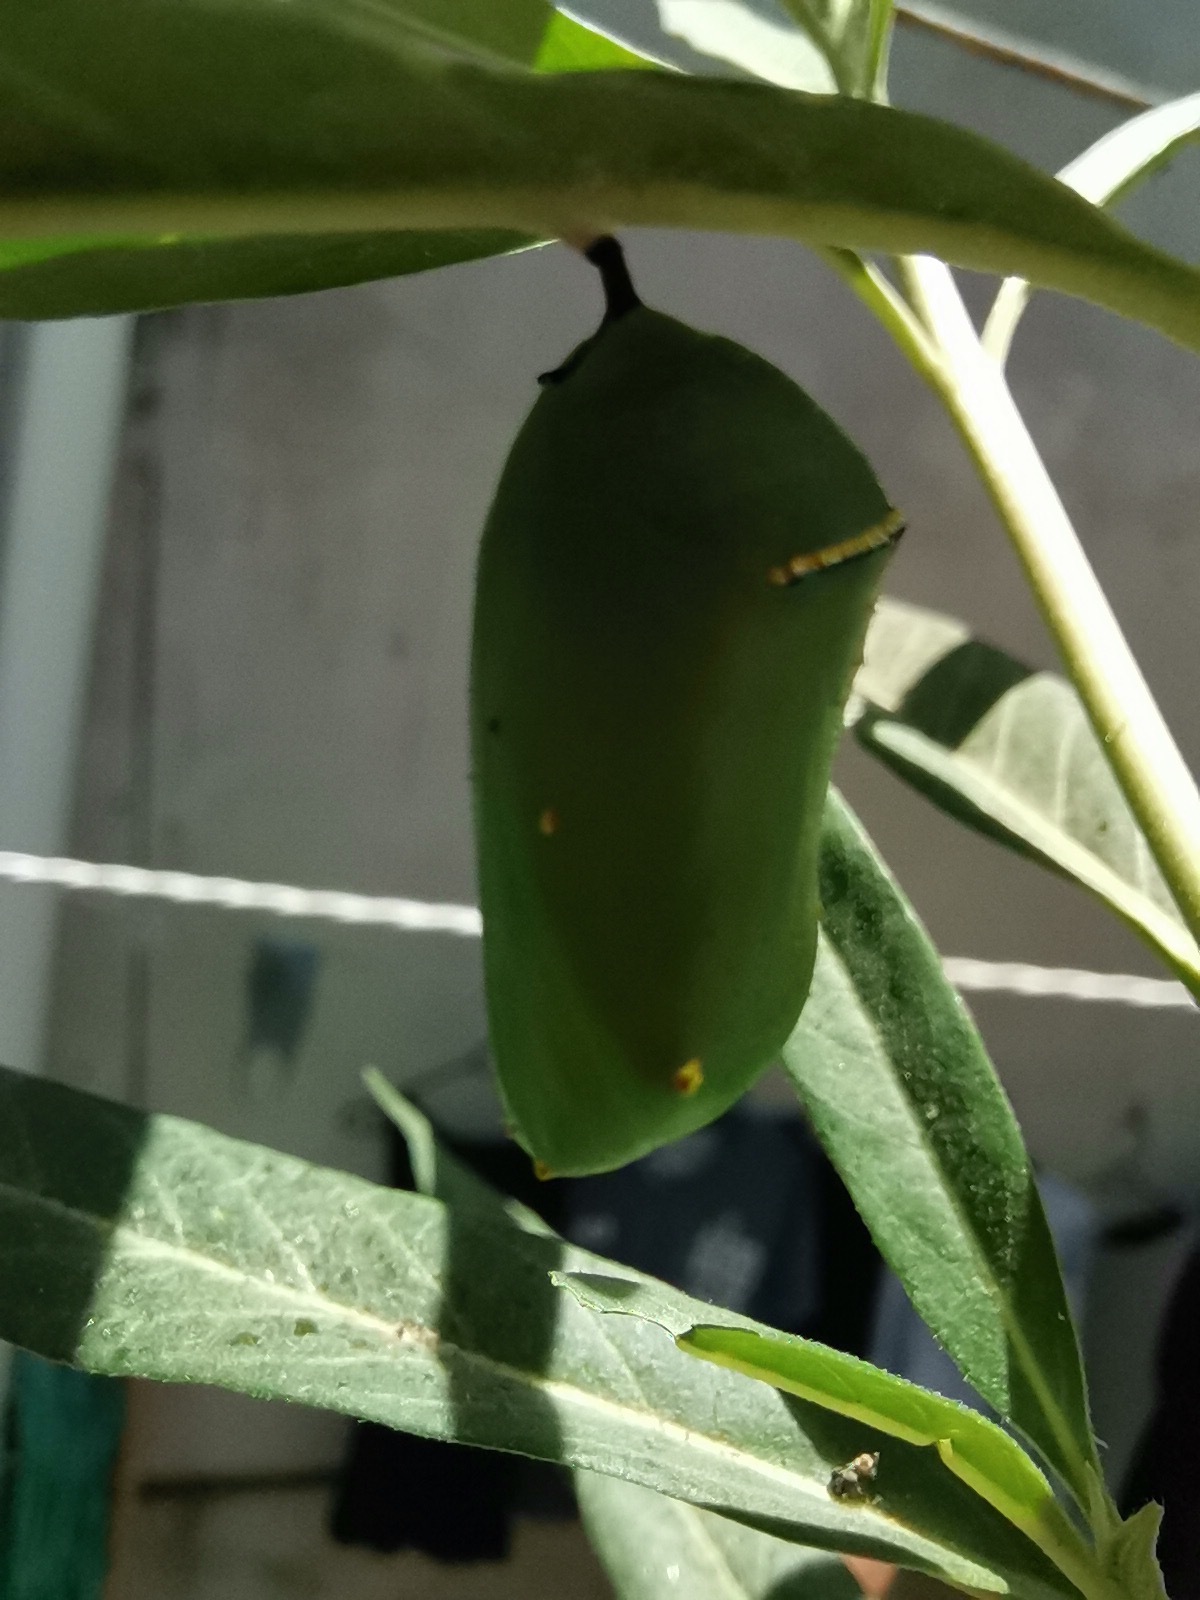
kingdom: Animalia
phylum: Arthropoda
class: Insecta
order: Lepidoptera
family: Nymphalidae
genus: Danaus
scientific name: Danaus
